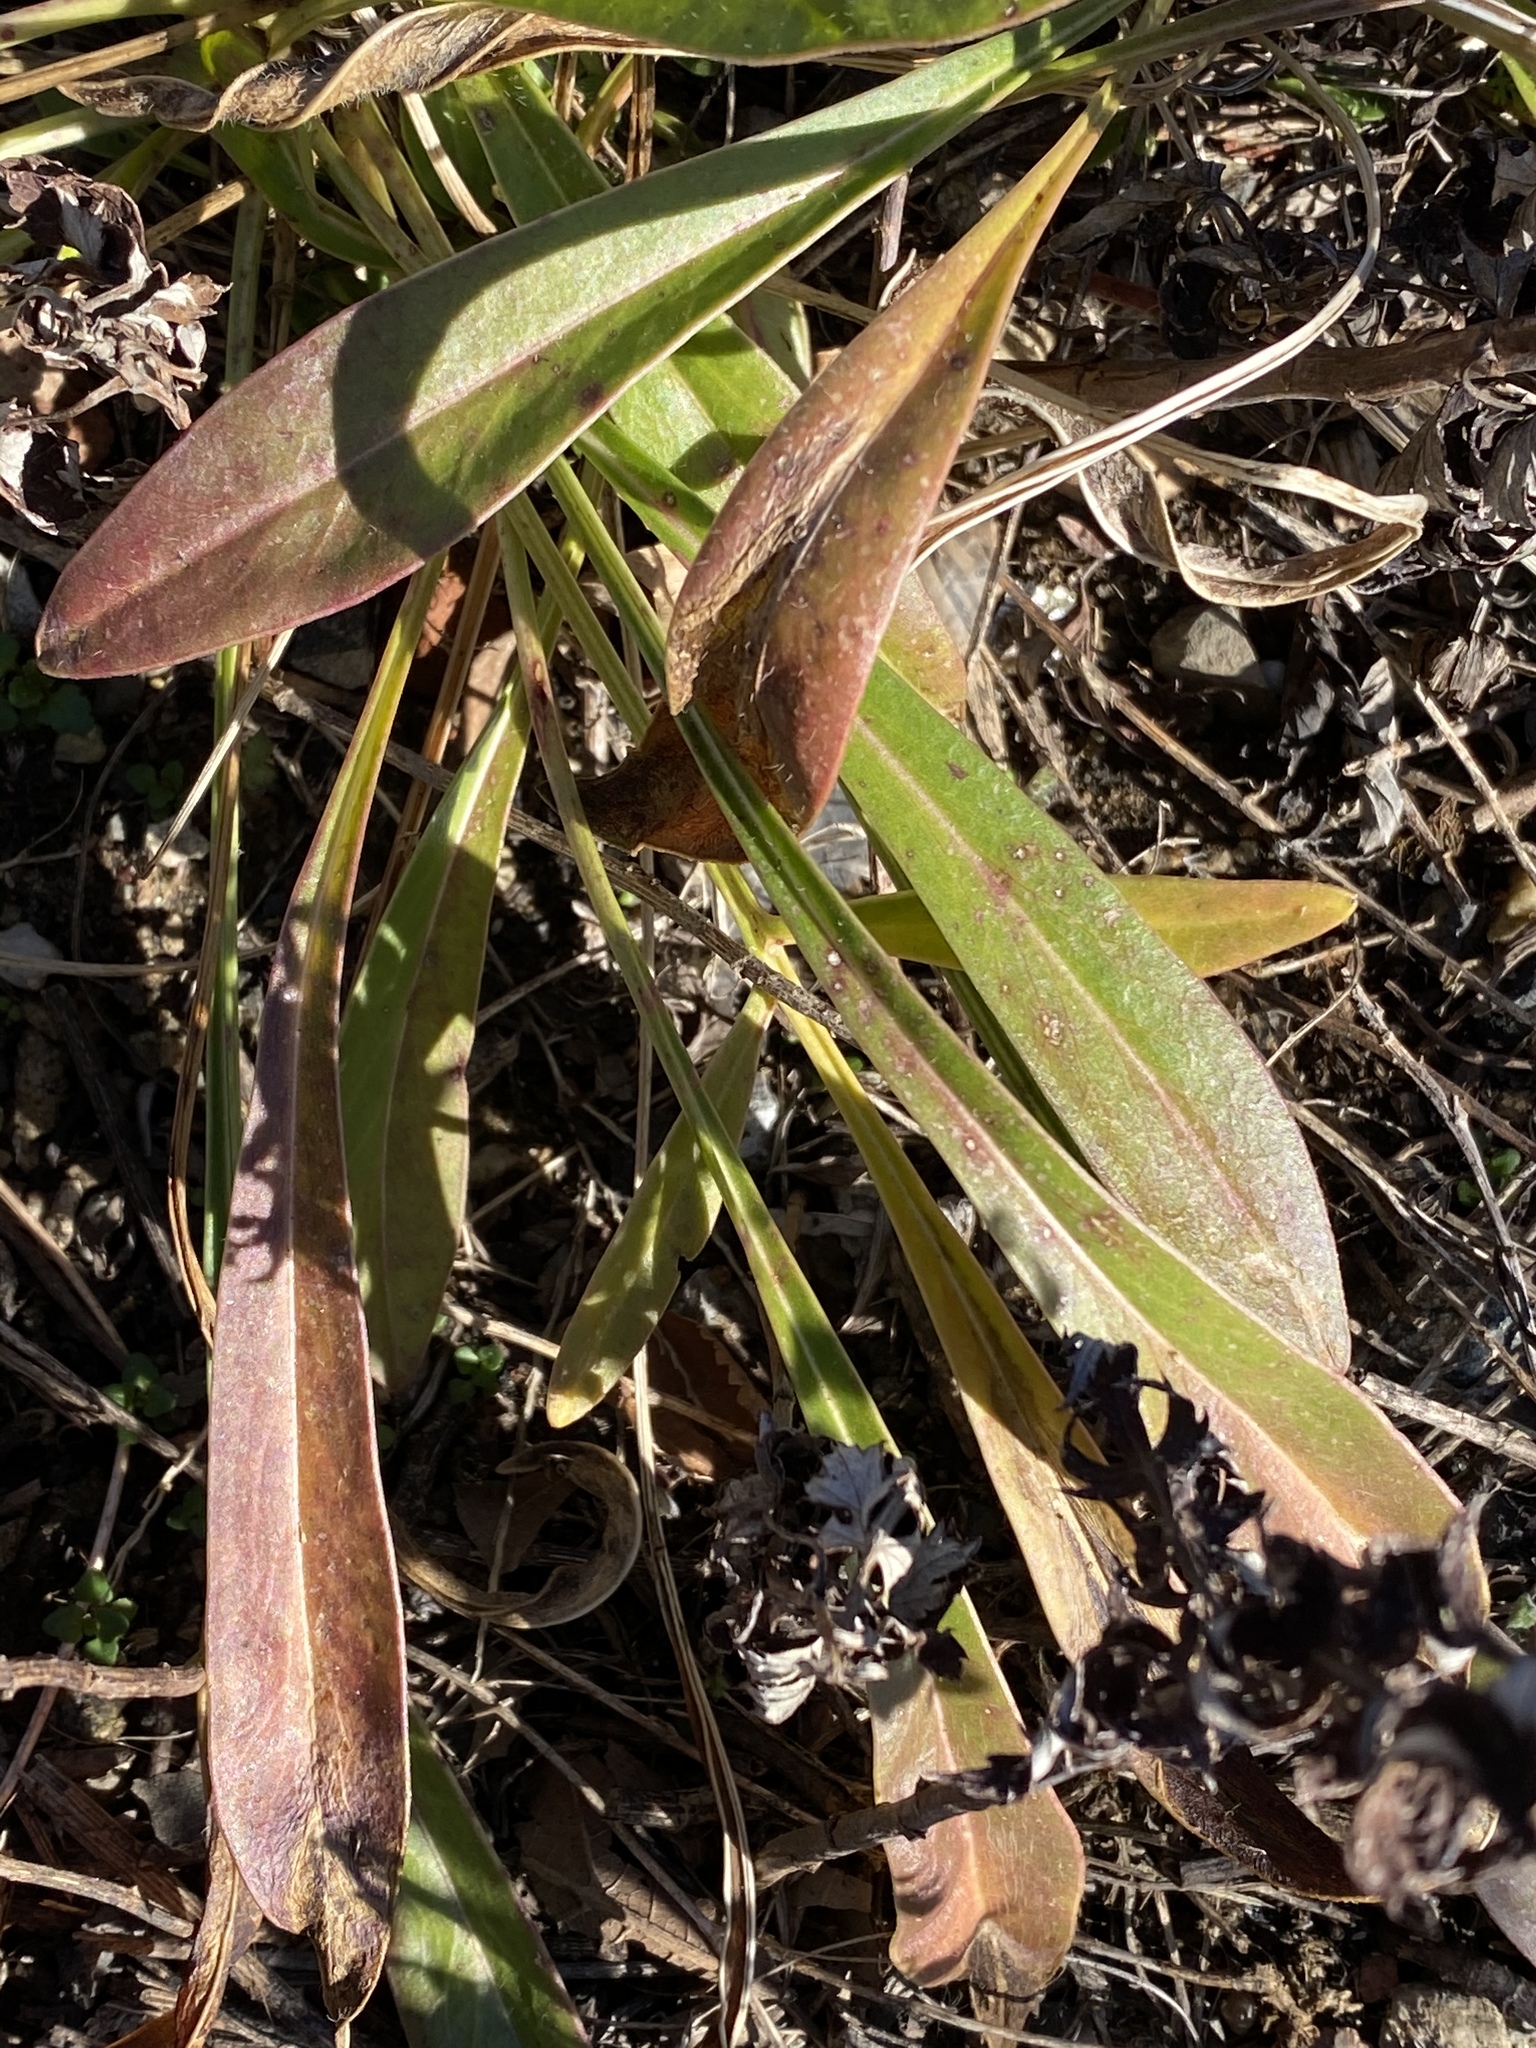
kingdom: Plantae
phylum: Tracheophyta
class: Magnoliopsida
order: Asterales
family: Asteraceae
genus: Solidago
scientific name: Solidago sempervirens
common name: Salt-marsh goldenrod
